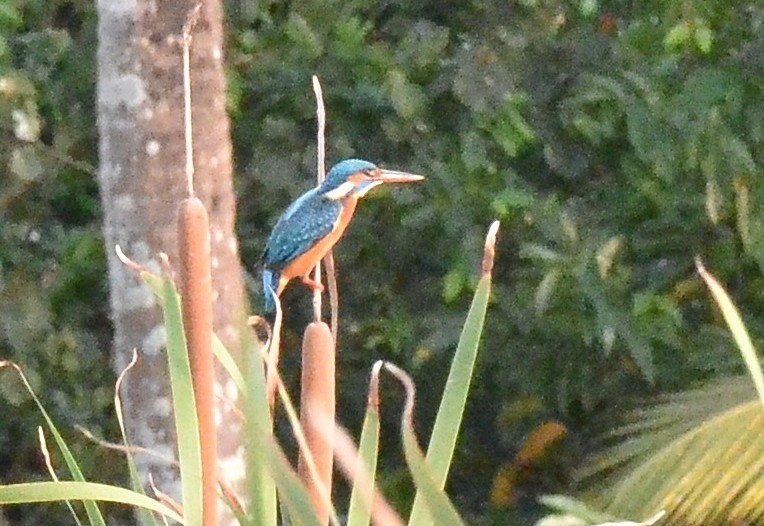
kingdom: Animalia
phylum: Chordata
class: Aves
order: Coraciiformes
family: Alcedinidae
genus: Alcedo
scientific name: Alcedo atthis
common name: Common kingfisher
